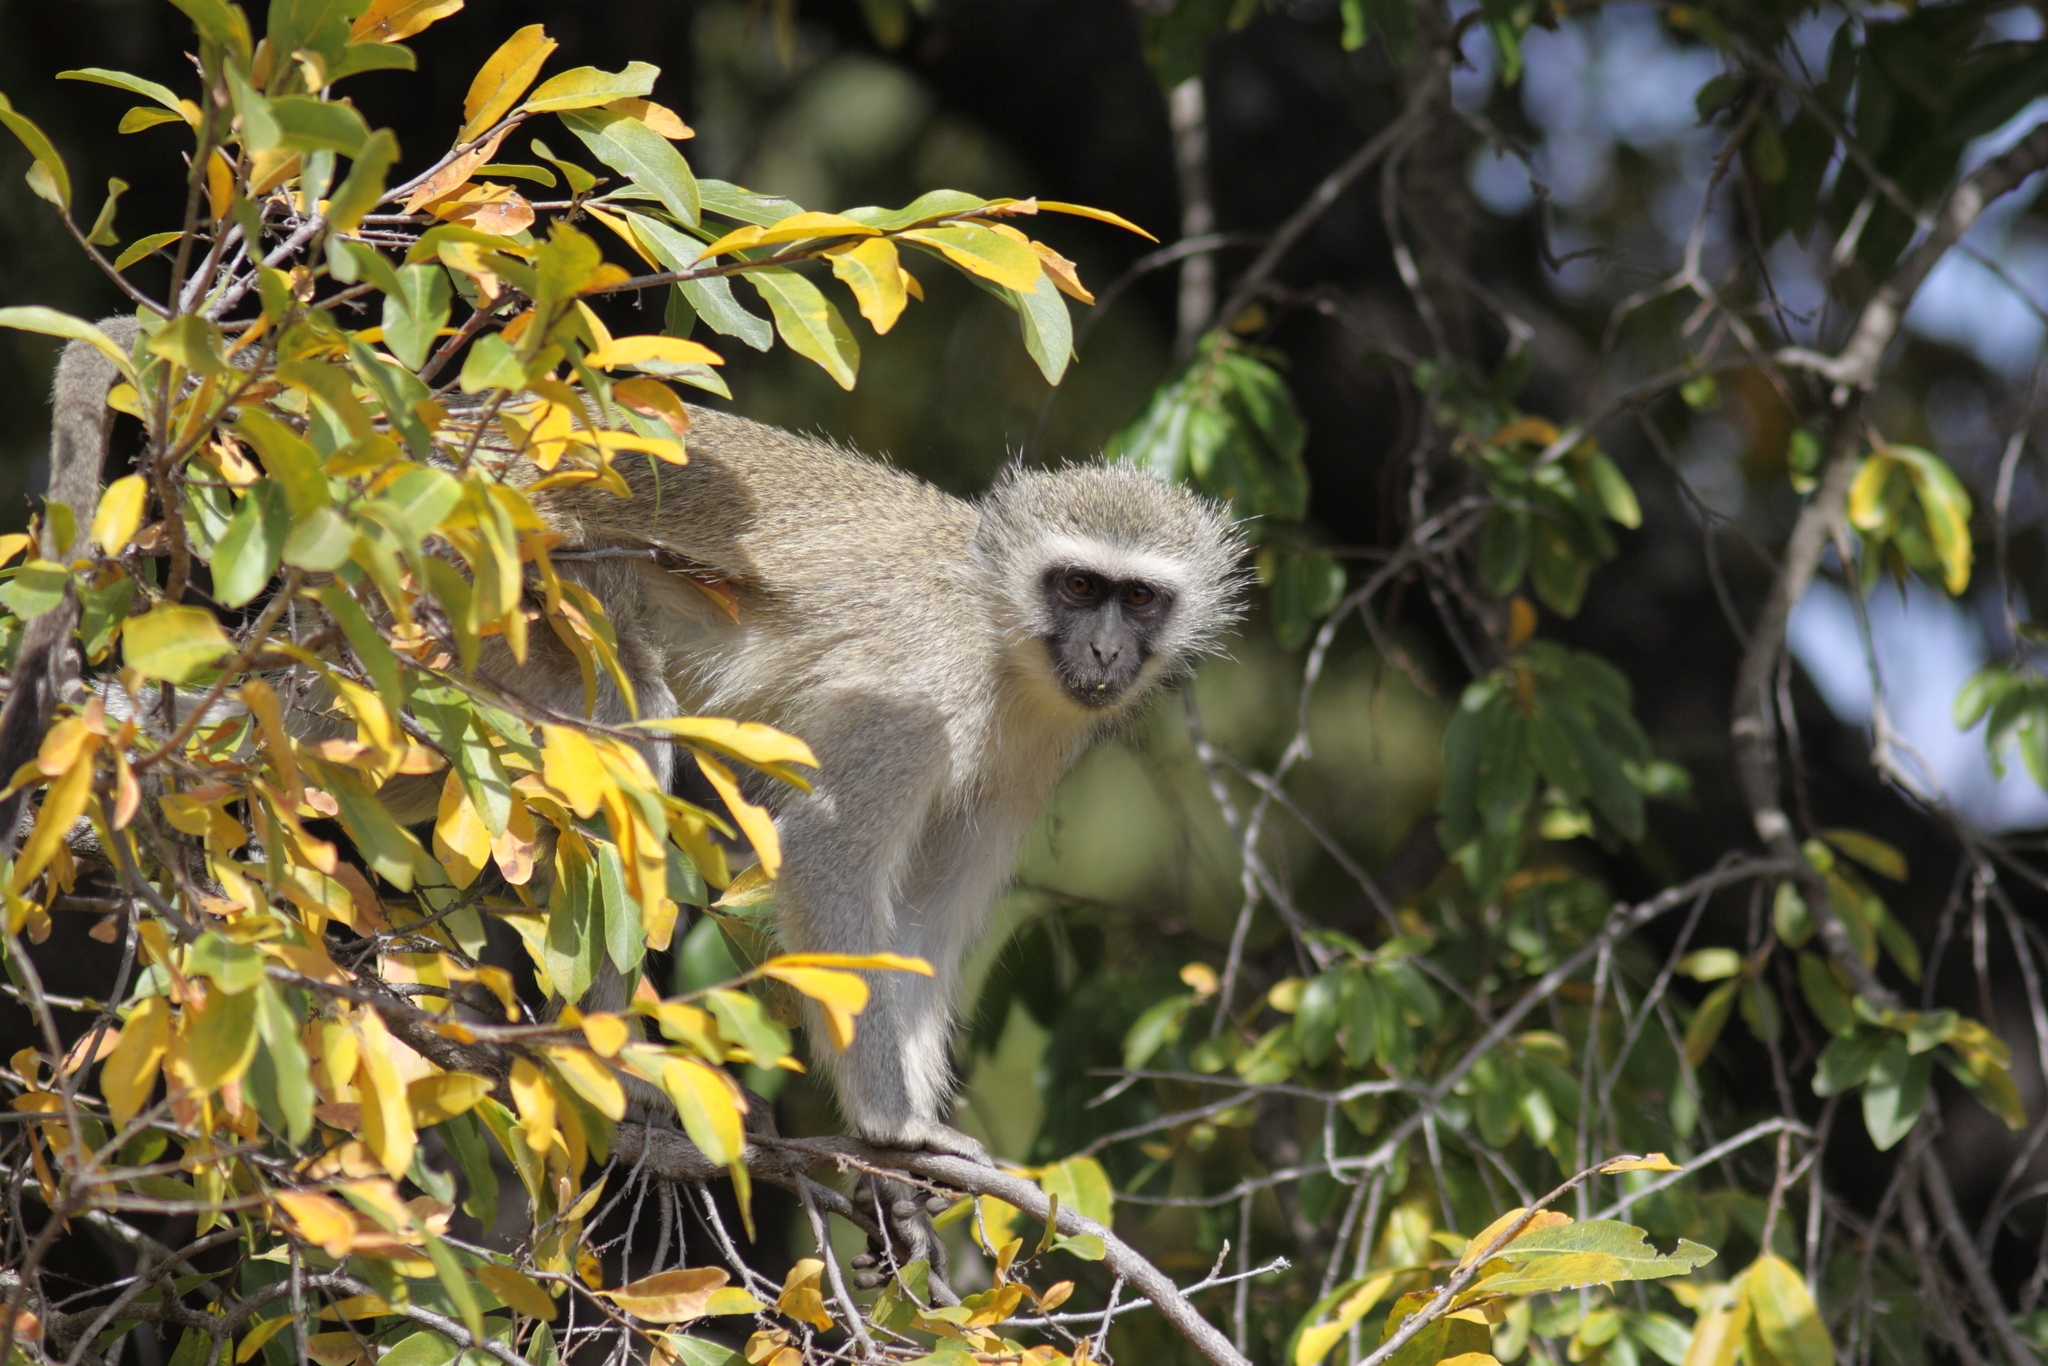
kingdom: Animalia
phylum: Chordata
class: Mammalia
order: Primates
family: Cercopithecidae
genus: Chlorocebus
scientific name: Chlorocebus pygerythrus
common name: Vervet monkey
